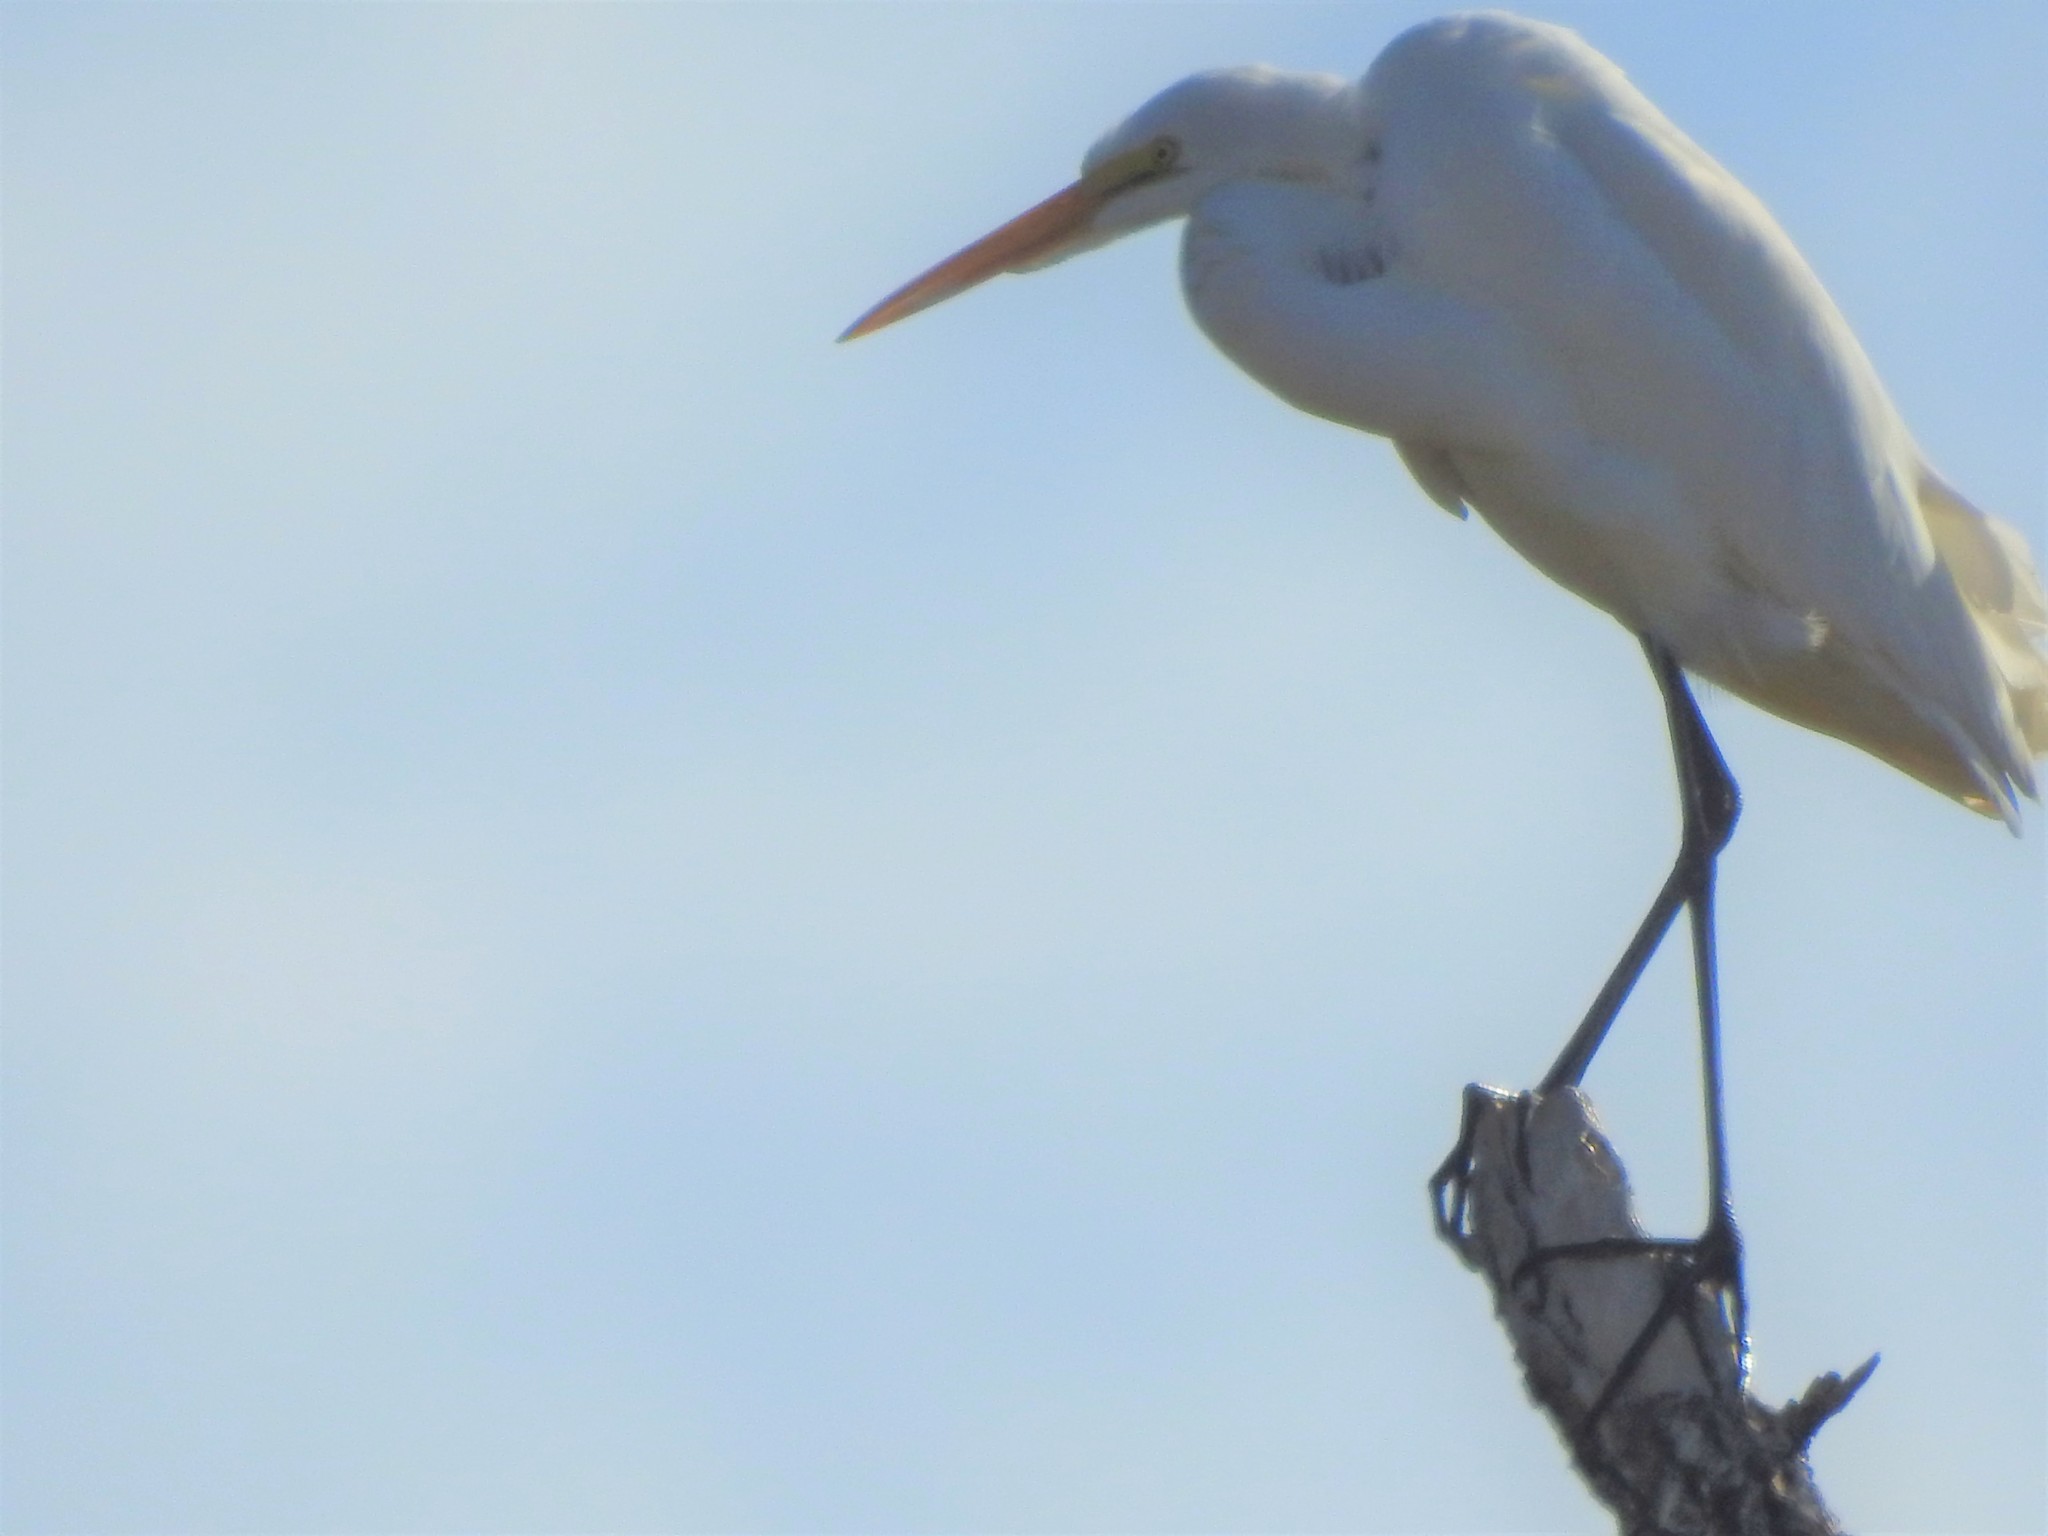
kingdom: Animalia
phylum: Chordata
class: Aves
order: Pelecaniformes
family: Ardeidae
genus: Ardea
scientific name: Ardea alba
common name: Great egret
